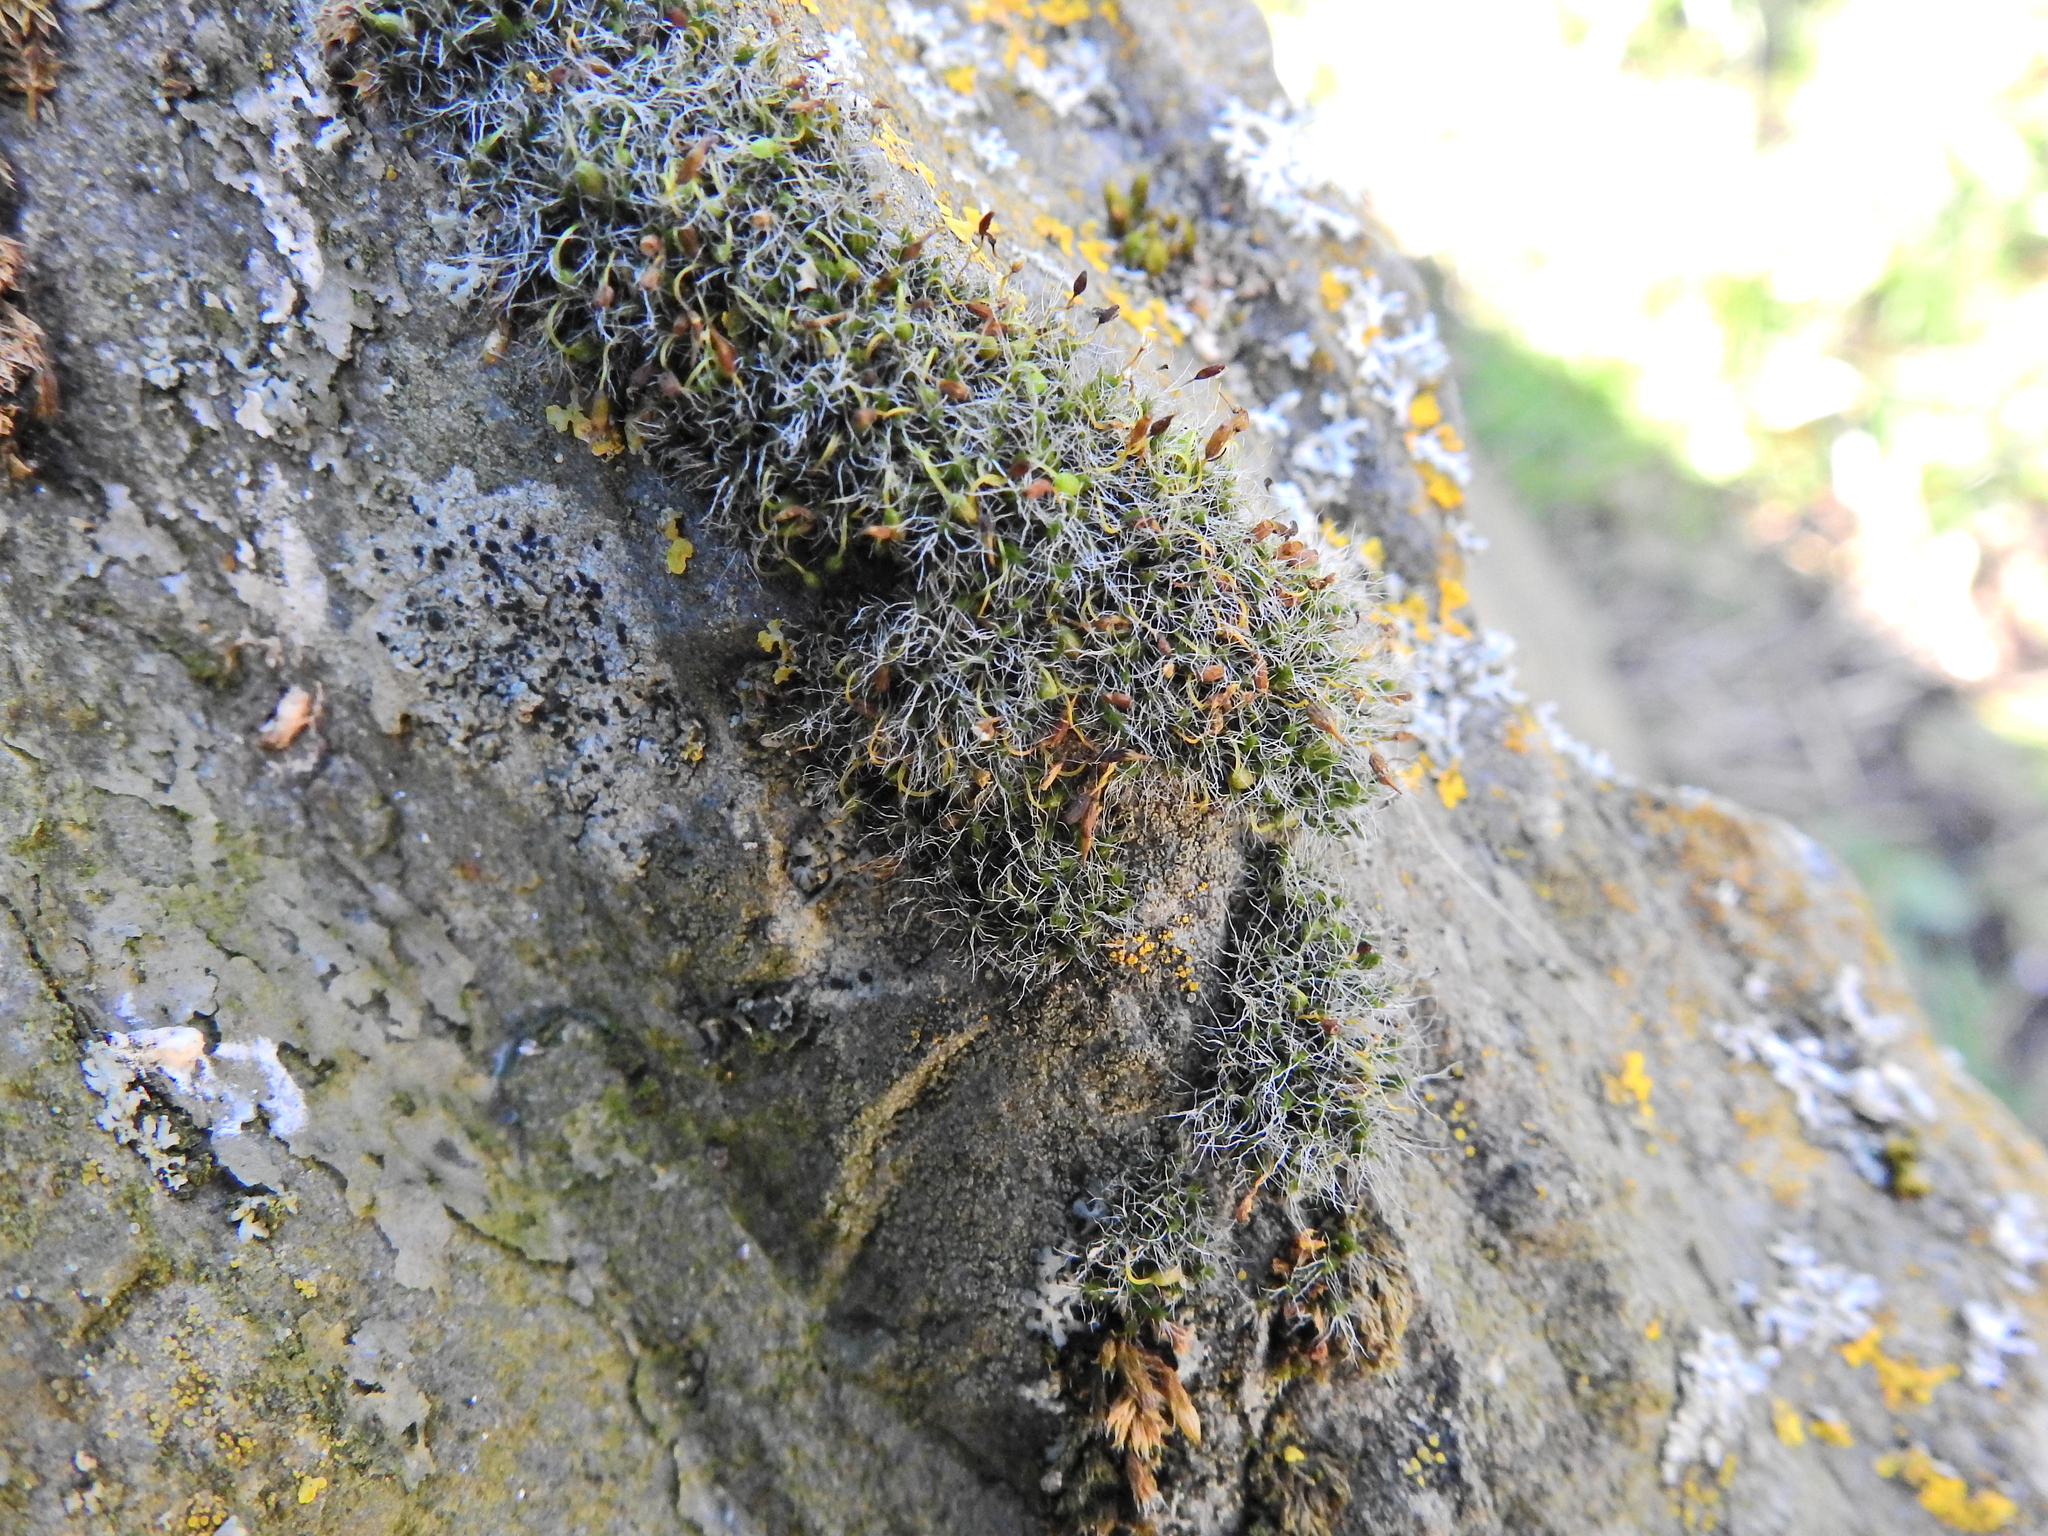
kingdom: Plantae
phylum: Bryophyta
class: Bryopsida
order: Grimmiales
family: Grimmiaceae
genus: Grimmia
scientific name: Grimmia pulvinata
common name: Grey-cushioned grimmia
